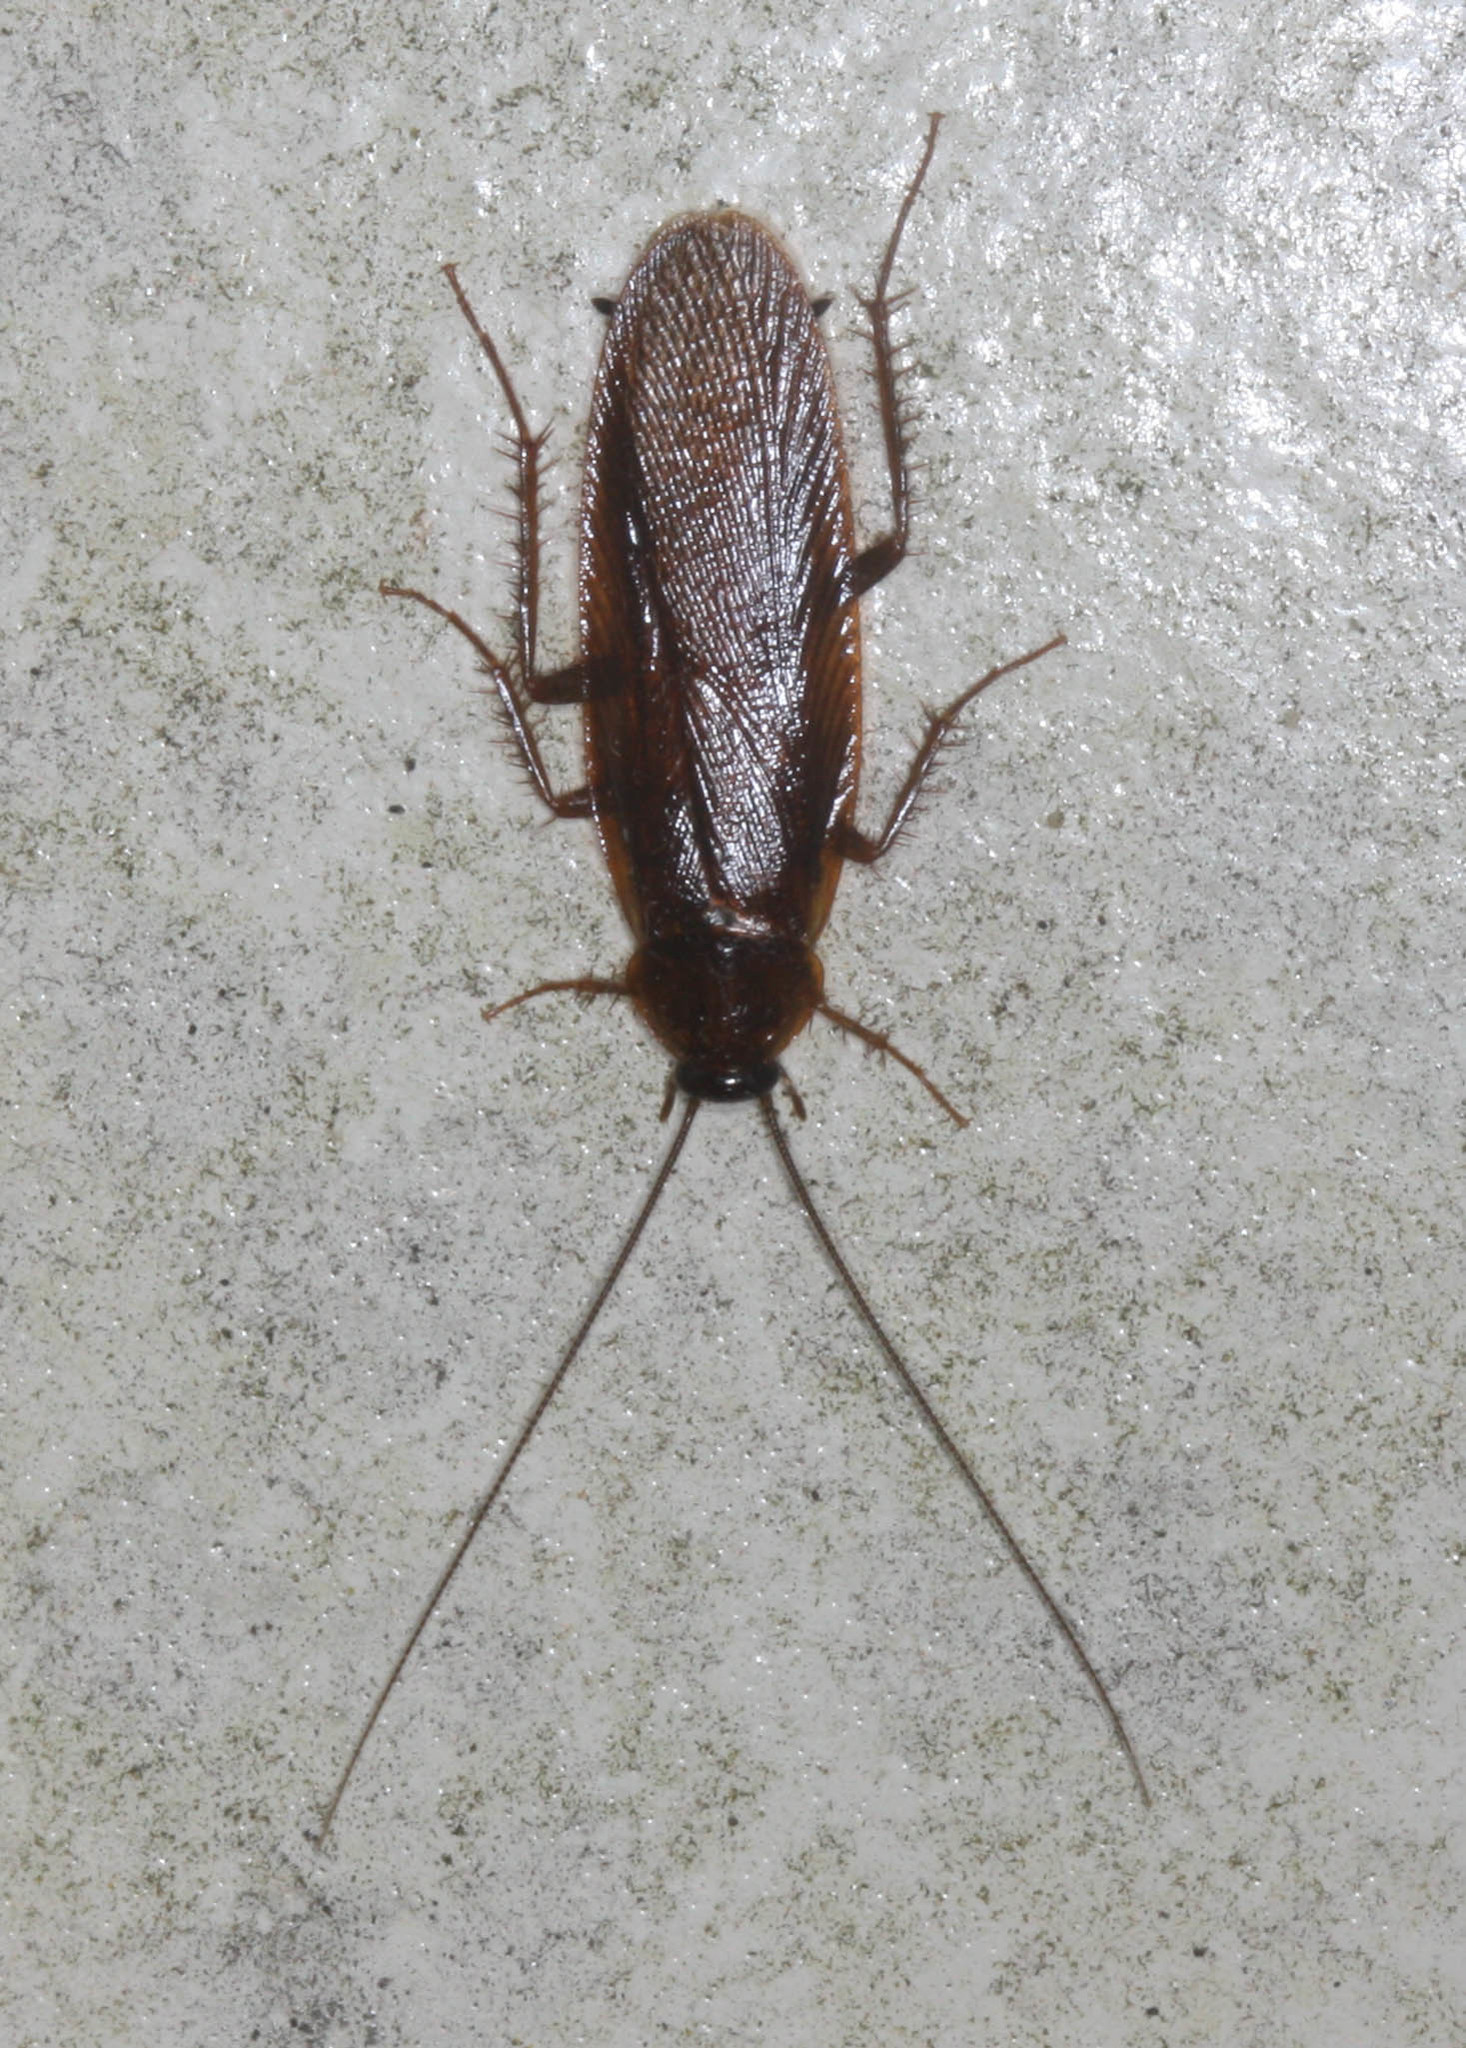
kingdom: Animalia
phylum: Arthropoda
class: Insecta
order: Blattodea
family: Ectobiidae
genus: Parcoblatta
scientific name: Parcoblatta americana
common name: Western wood cockroach
